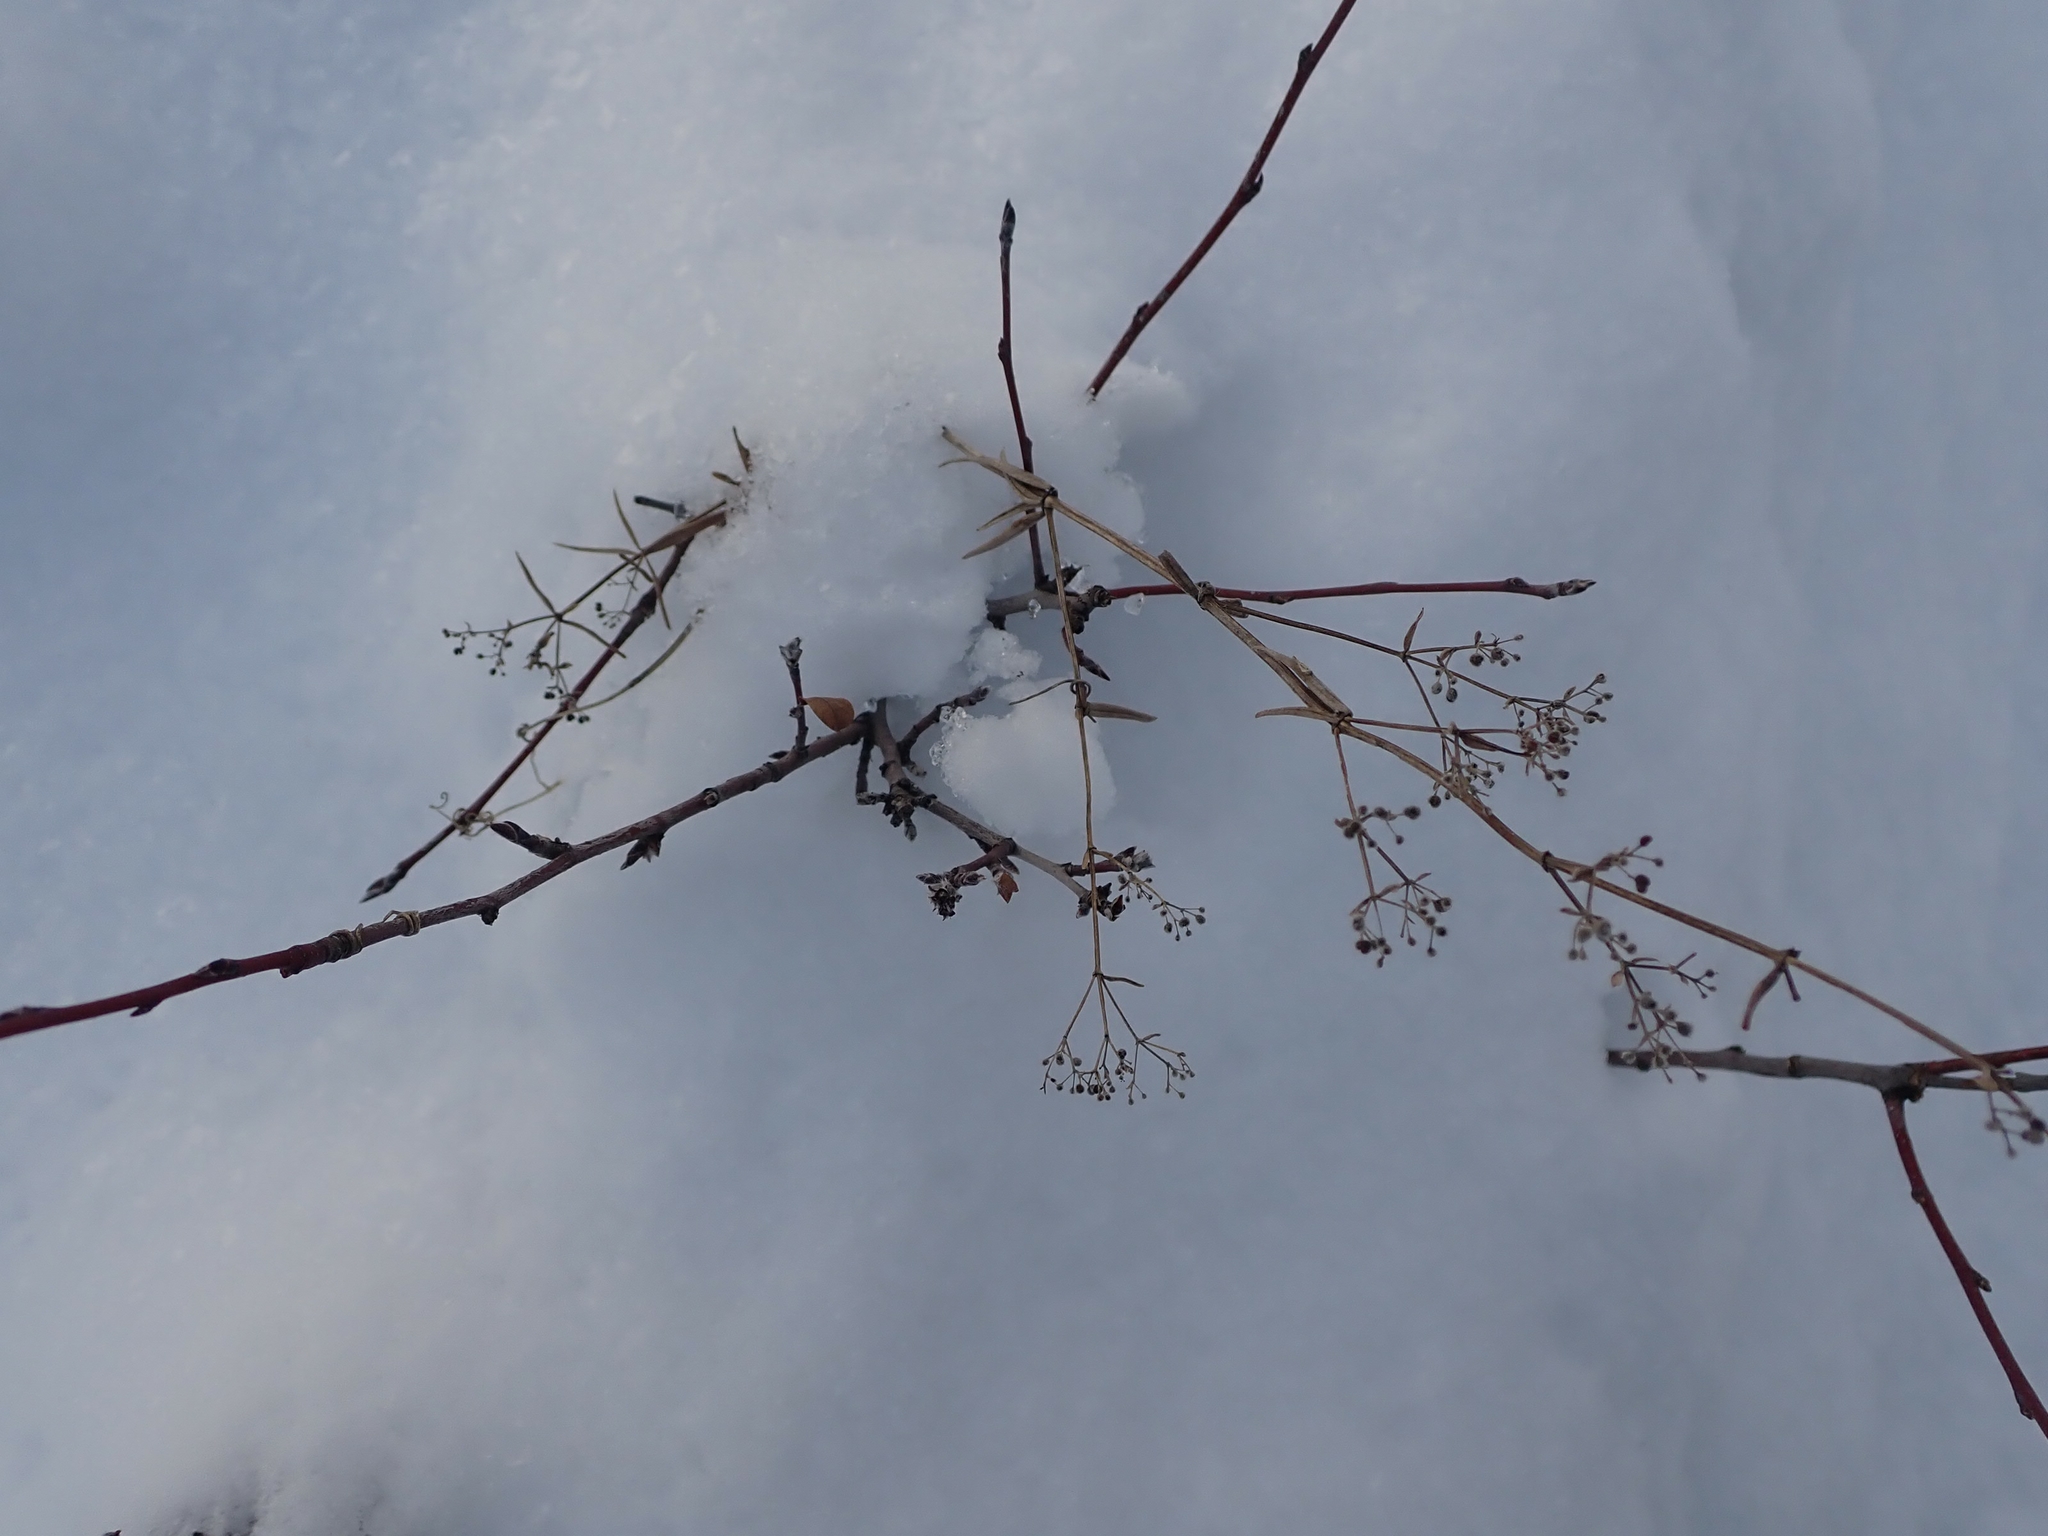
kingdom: Plantae
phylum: Tracheophyta
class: Magnoliopsida
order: Gentianales
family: Rubiaceae
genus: Galium
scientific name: Galium boreale
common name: Northern bedstraw
